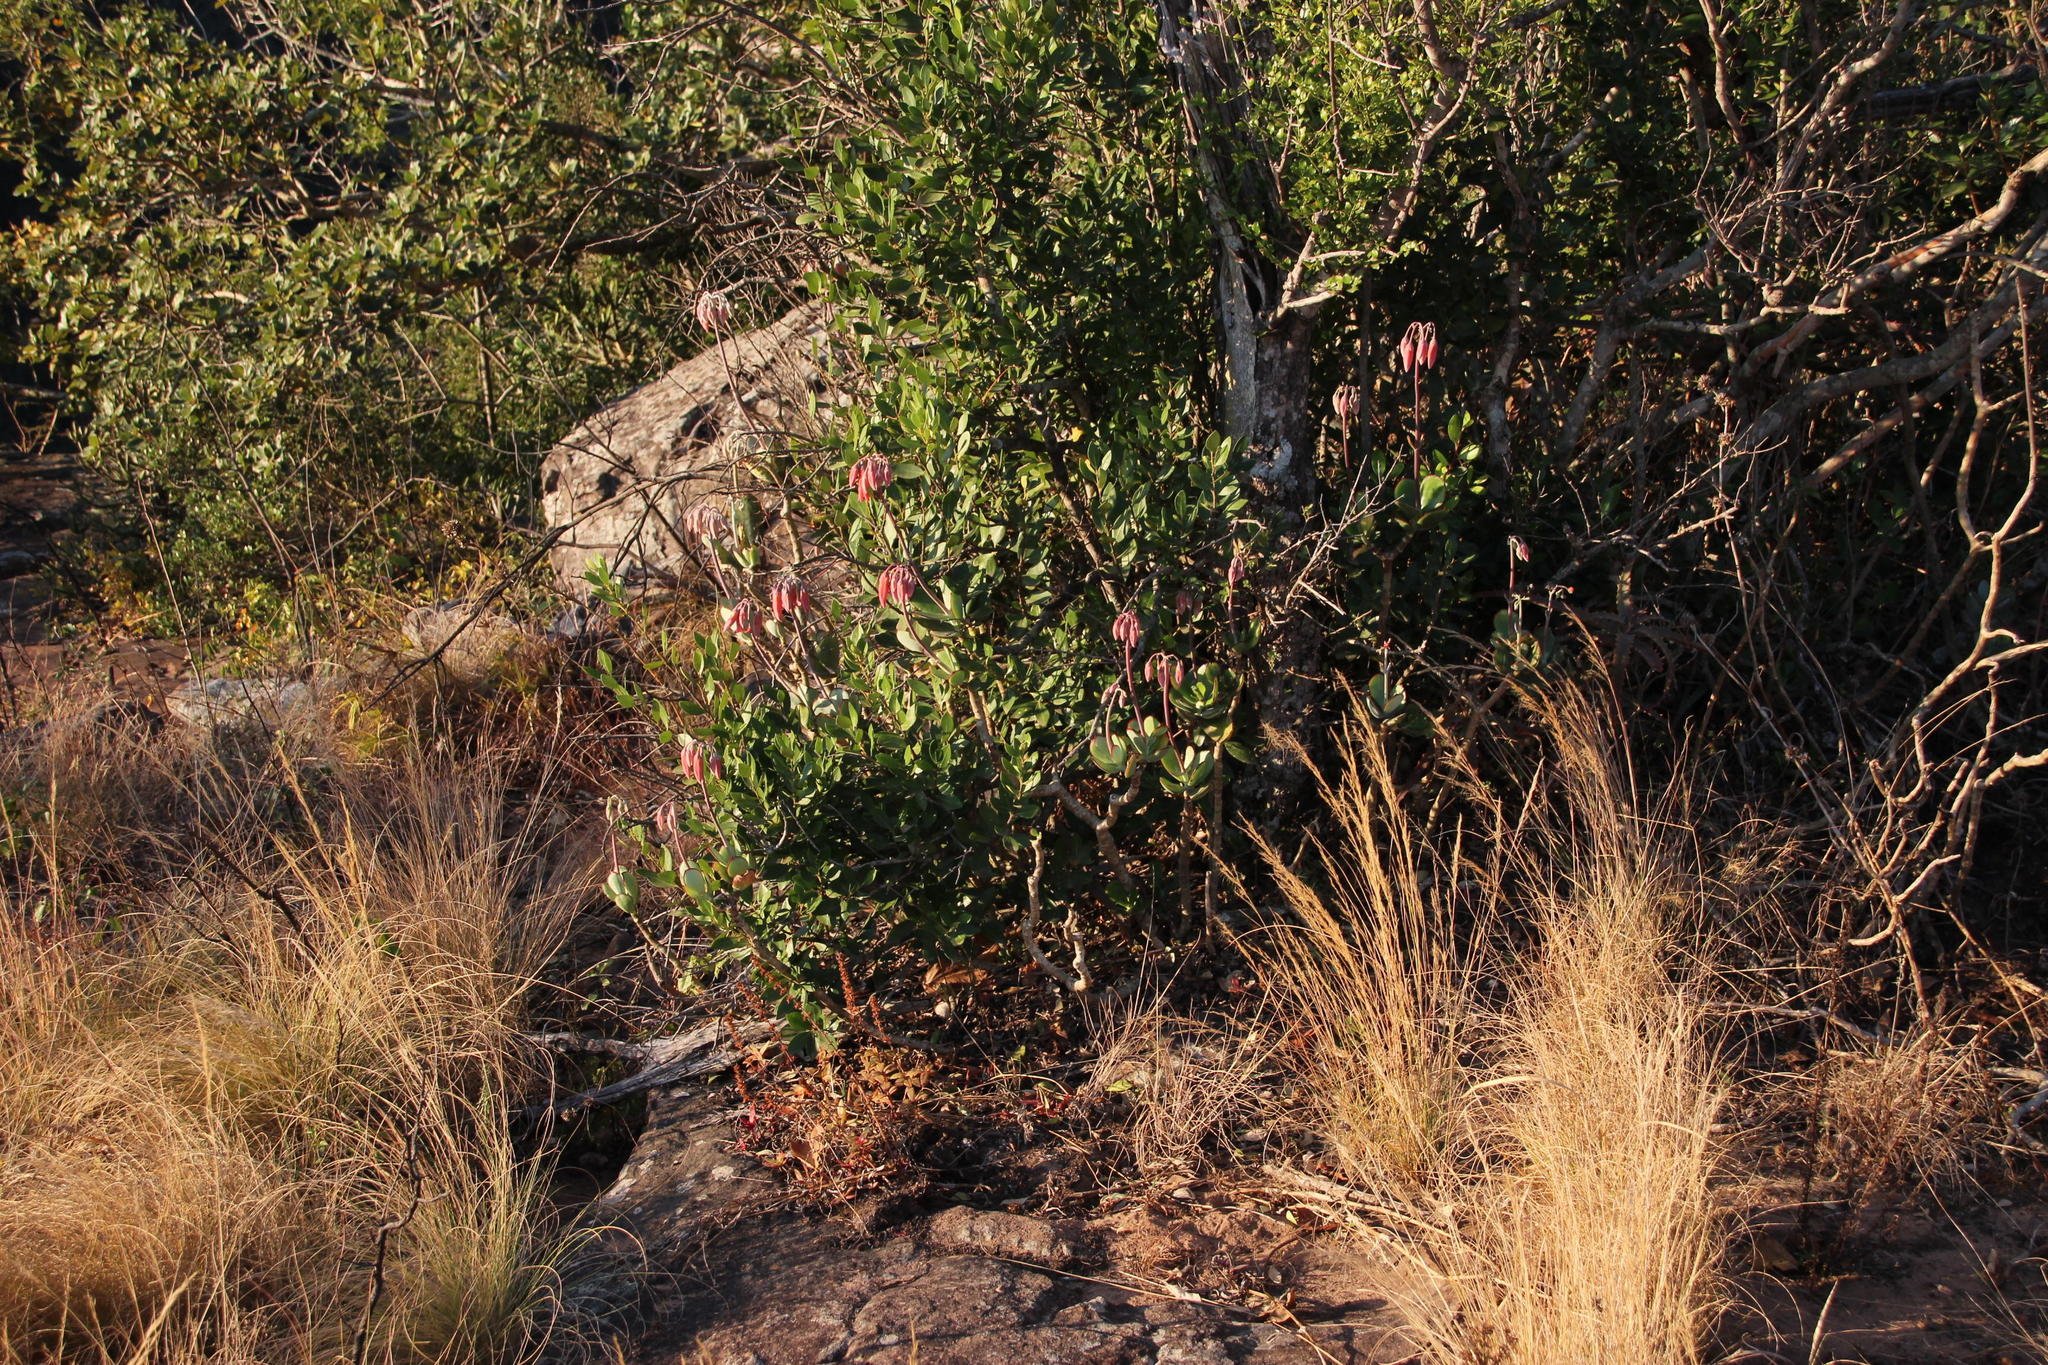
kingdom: Plantae
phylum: Tracheophyta
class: Magnoliopsida
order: Saxifragales
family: Crassulaceae
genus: Cotyledon
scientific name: Cotyledon orbiculata
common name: Pig's ear
